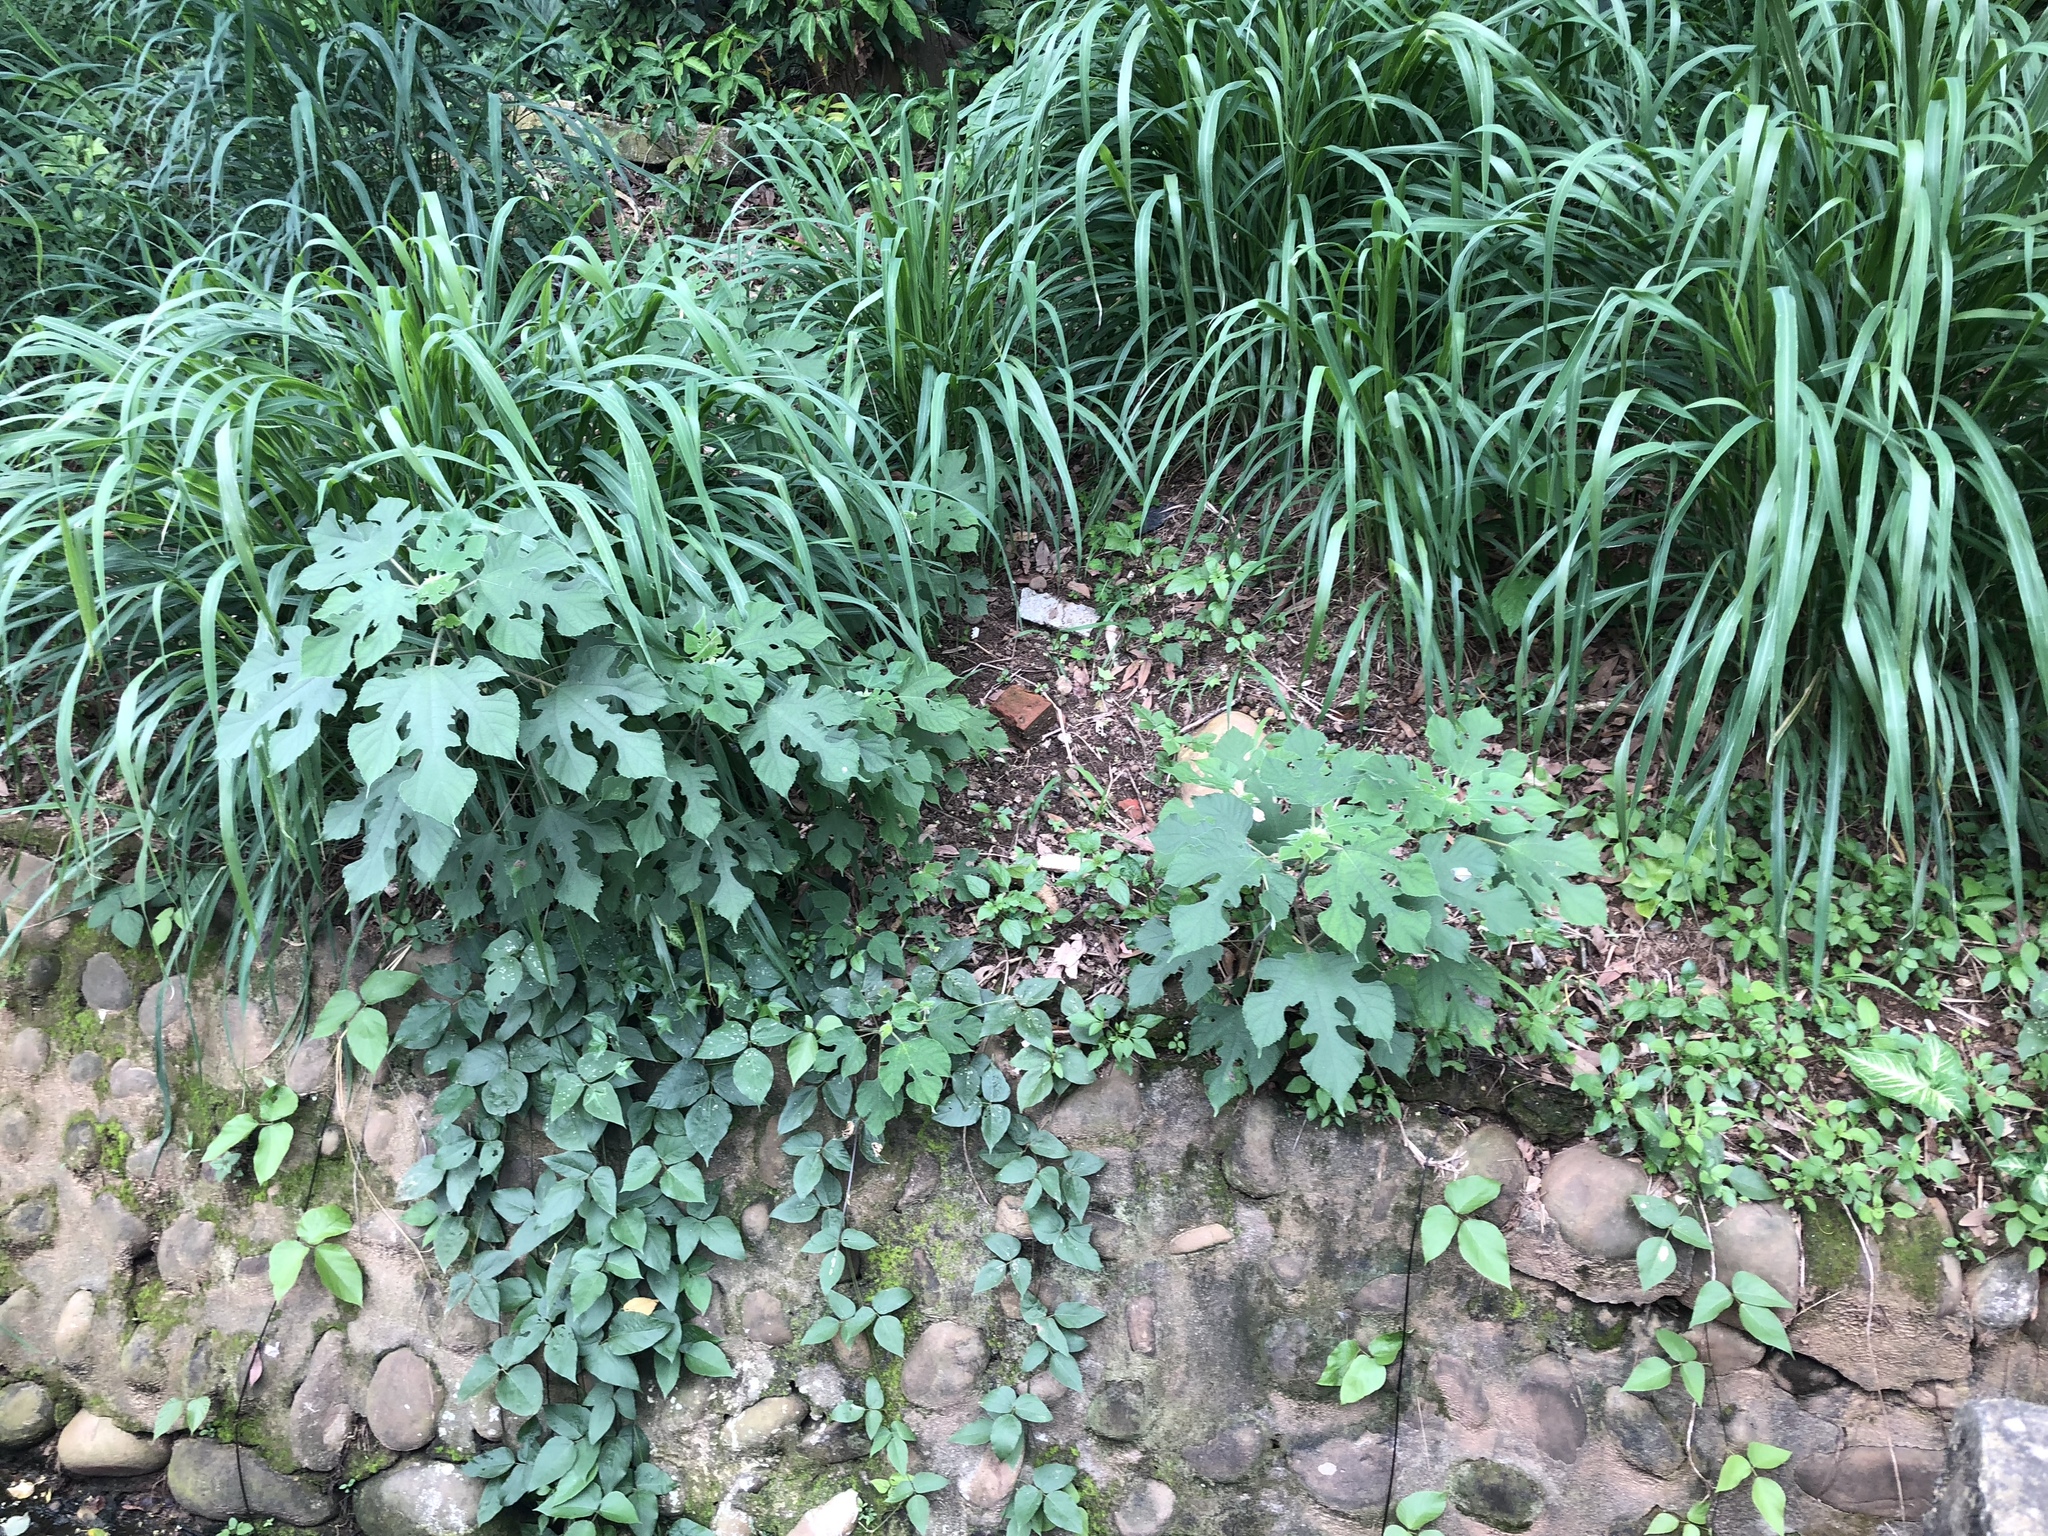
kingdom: Plantae
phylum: Tracheophyta
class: Magnoliopsida
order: Rosales
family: Moraceae
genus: Broussonetia
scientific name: Broussonetia papyrifera
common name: Paper mulberry
